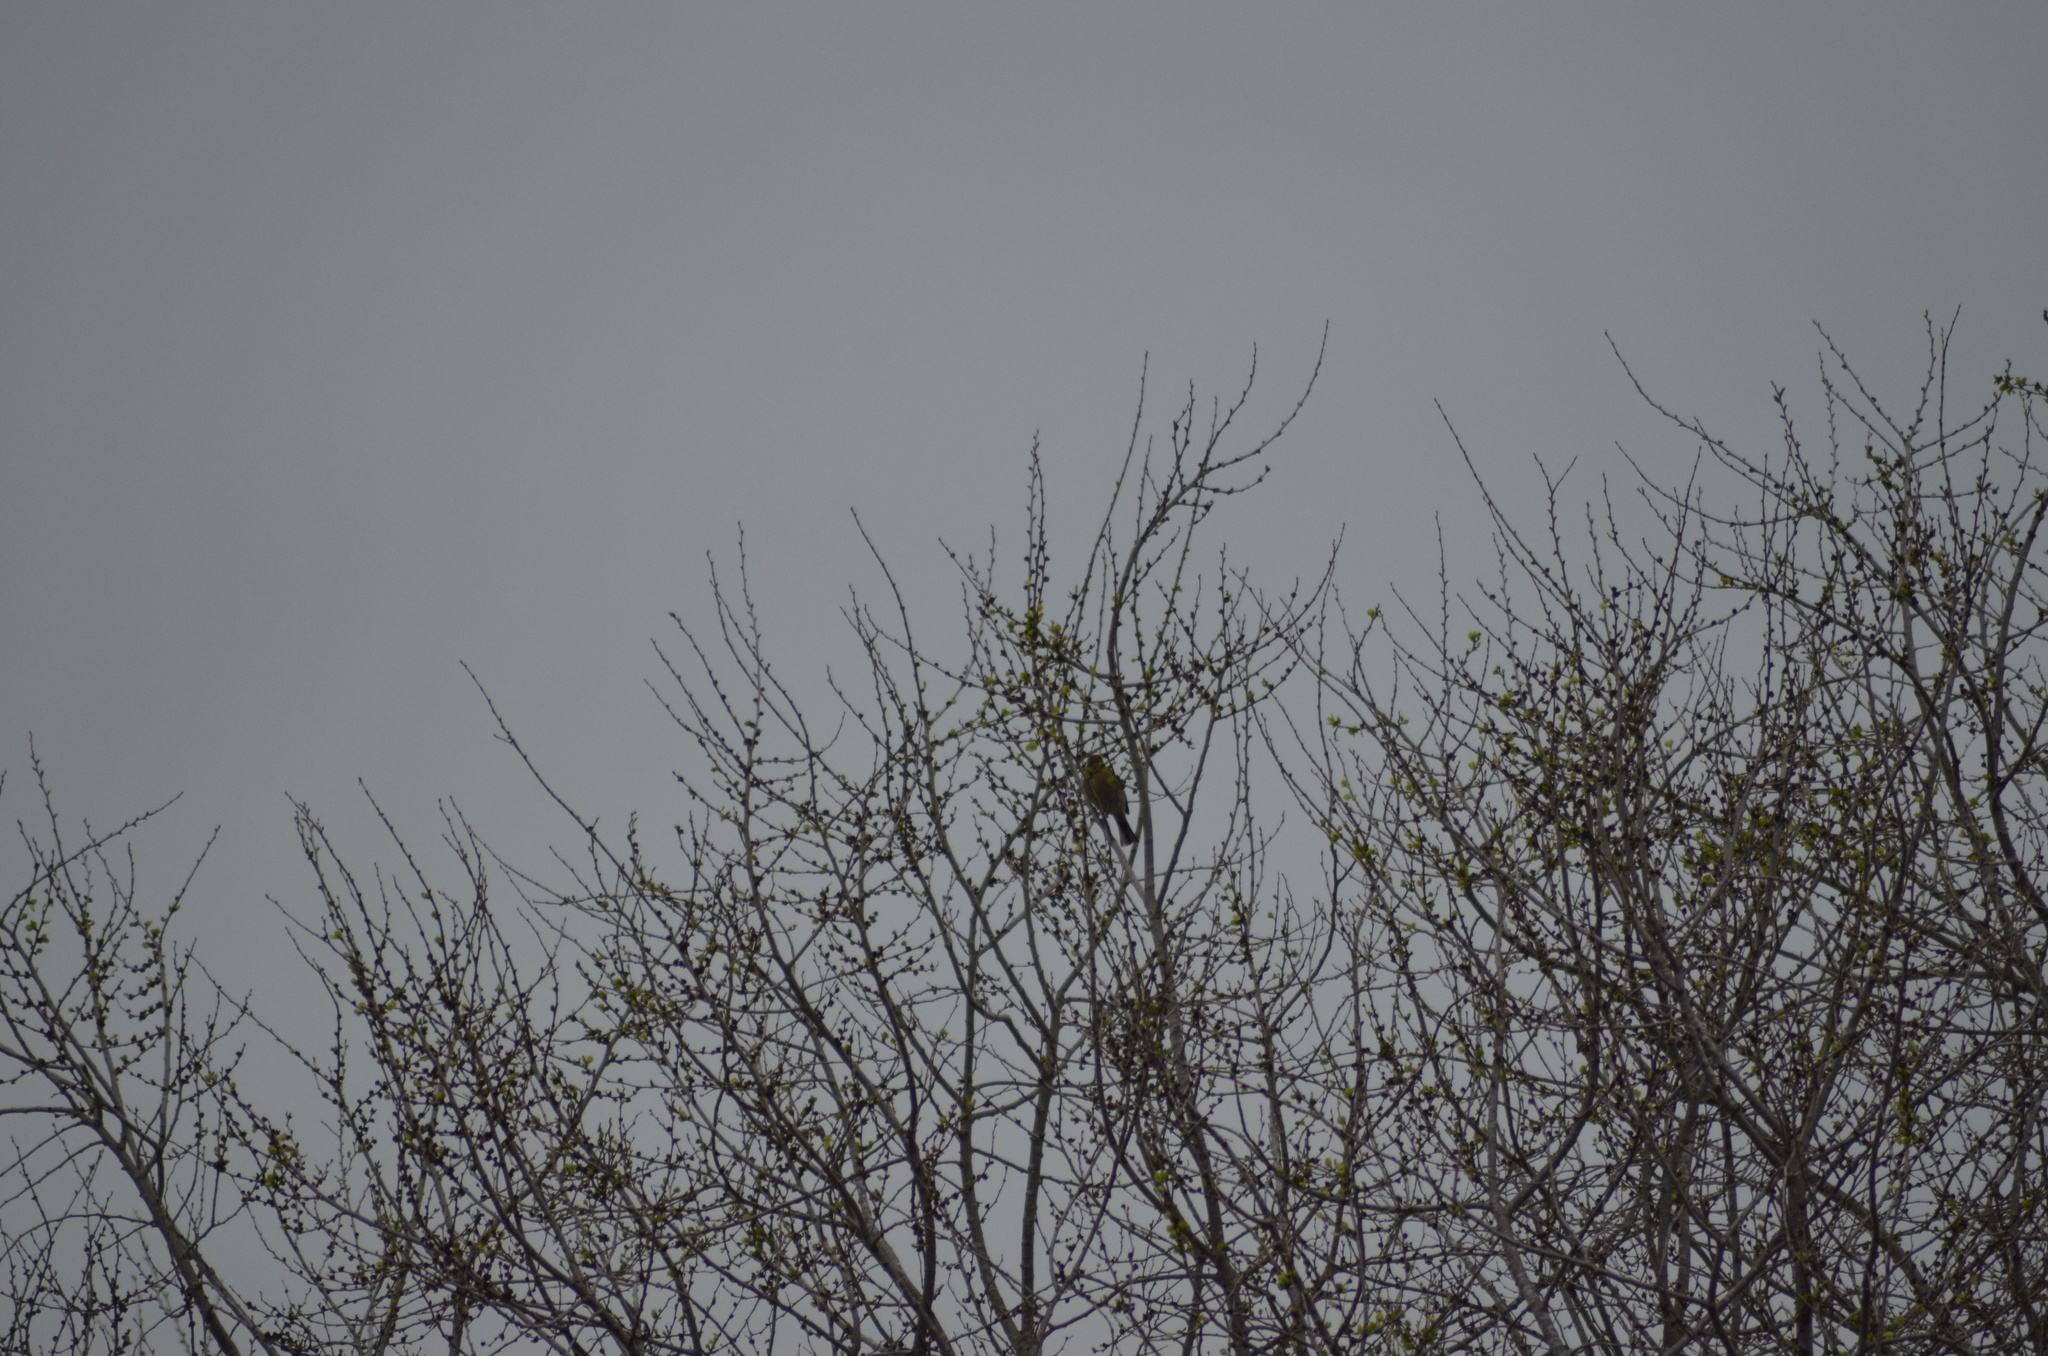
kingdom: Animalia
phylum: Chordata
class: Aves
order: Passeriformes
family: Fringillidae
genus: Fringilla
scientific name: Fringilla coelebs
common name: Common chaffinch
